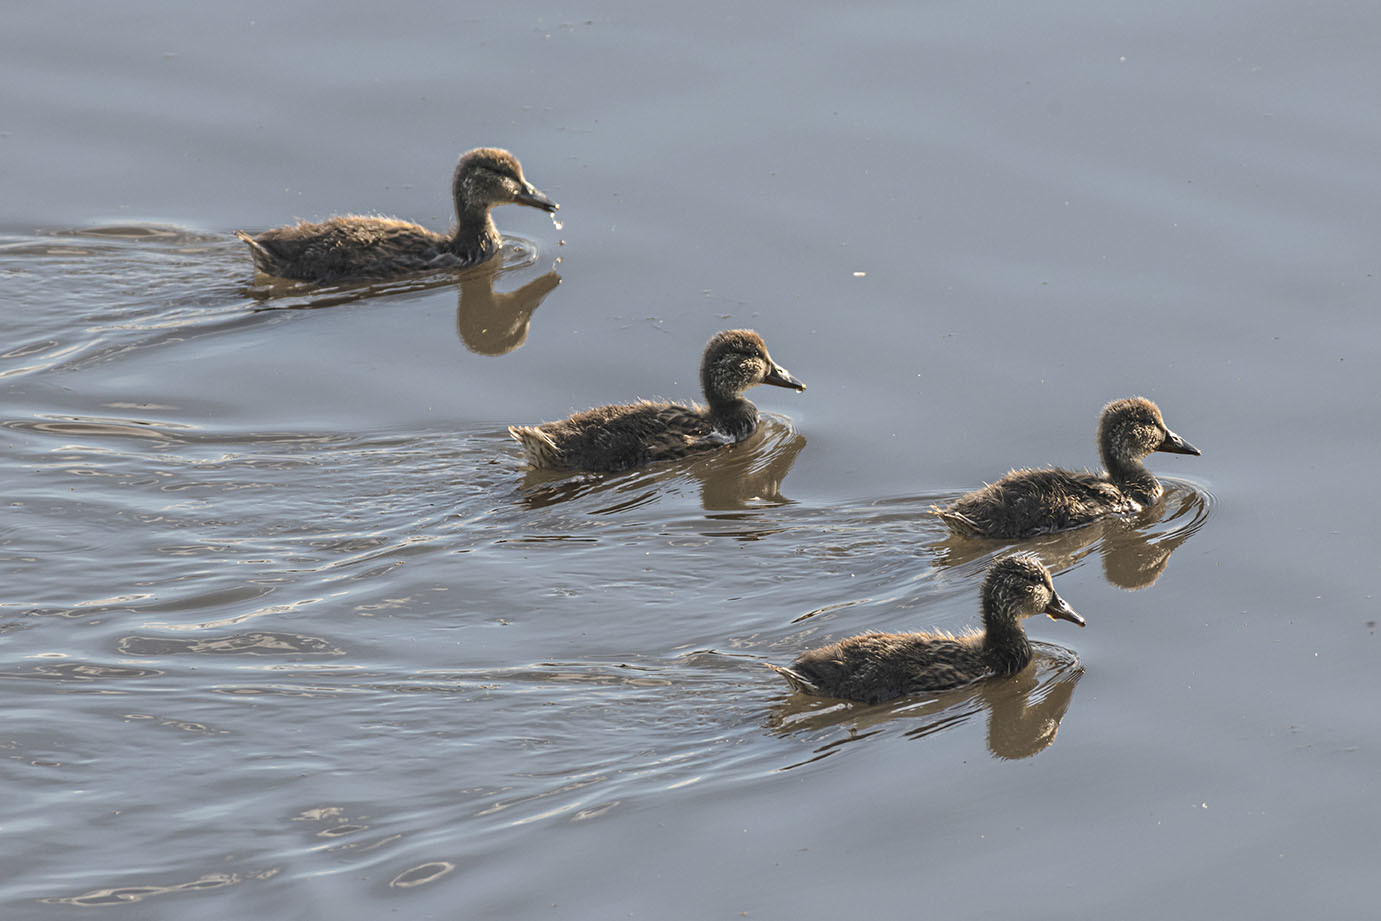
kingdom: Animalia
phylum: Chordata
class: Aves
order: Anseriformes
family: Anatidae
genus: Anas
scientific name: Anas
